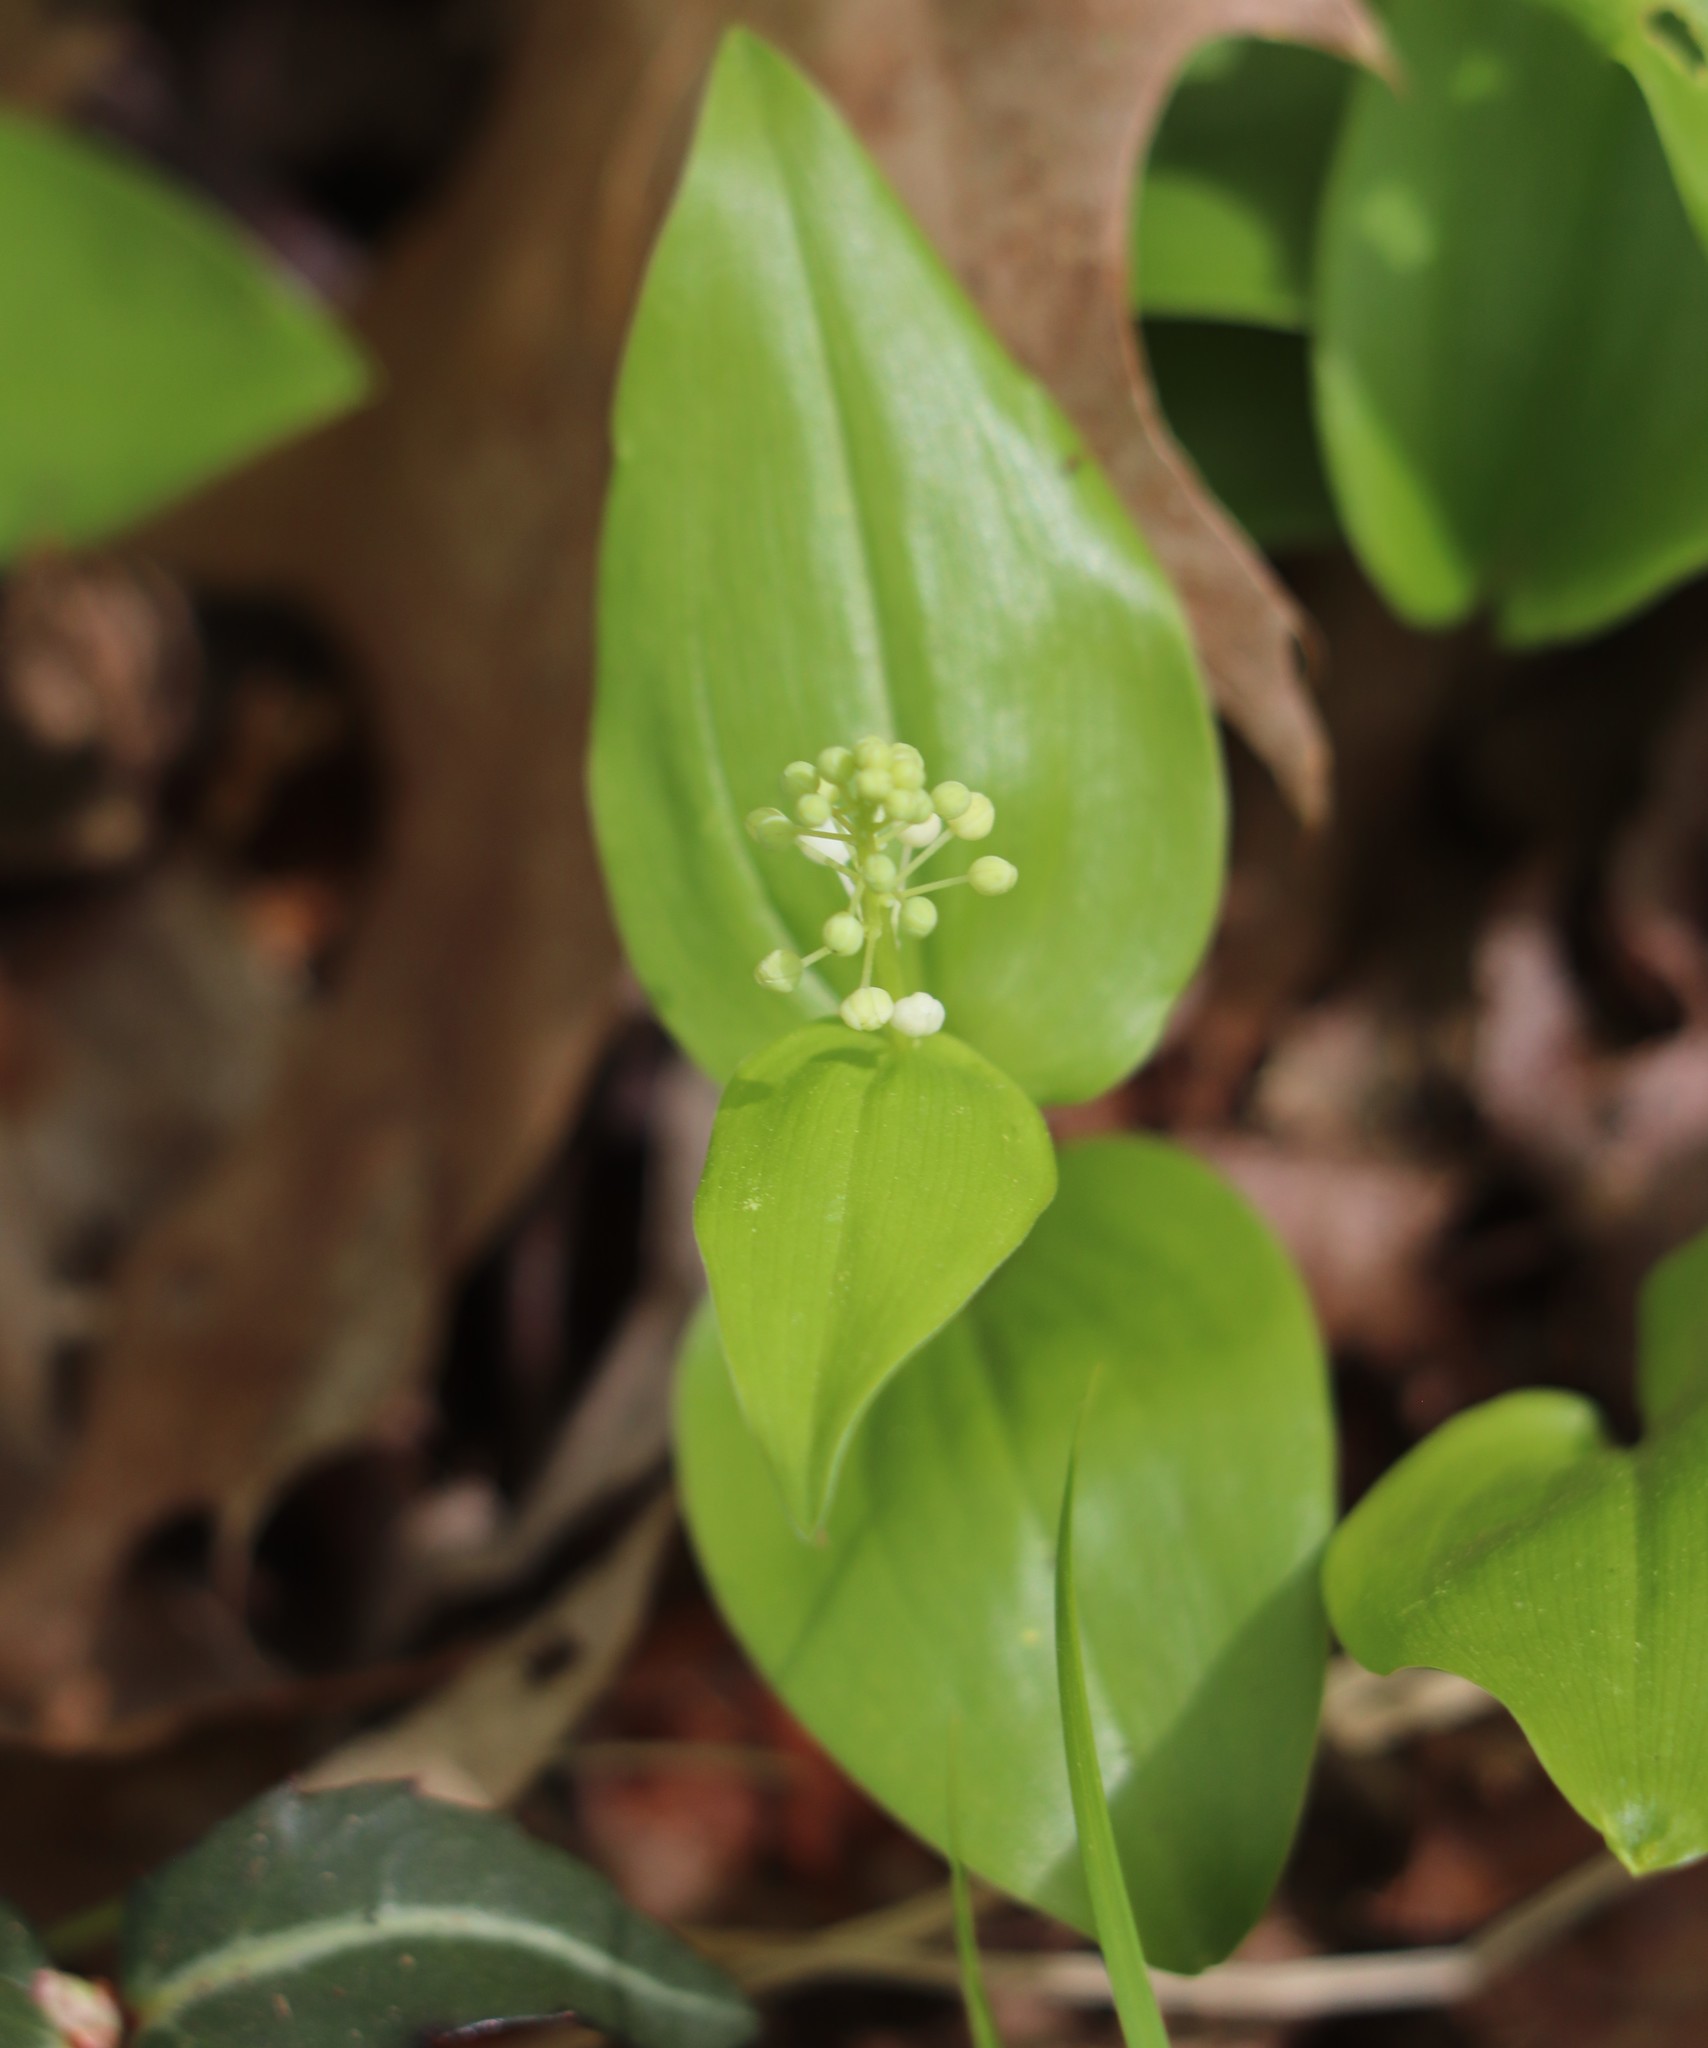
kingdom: Plantae
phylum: Tracheophyta
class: Liliopsida
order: Asparagales
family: Asparagaceae
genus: Maianthemum
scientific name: Maianthemum canadense
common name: False lily-of-the-valley
